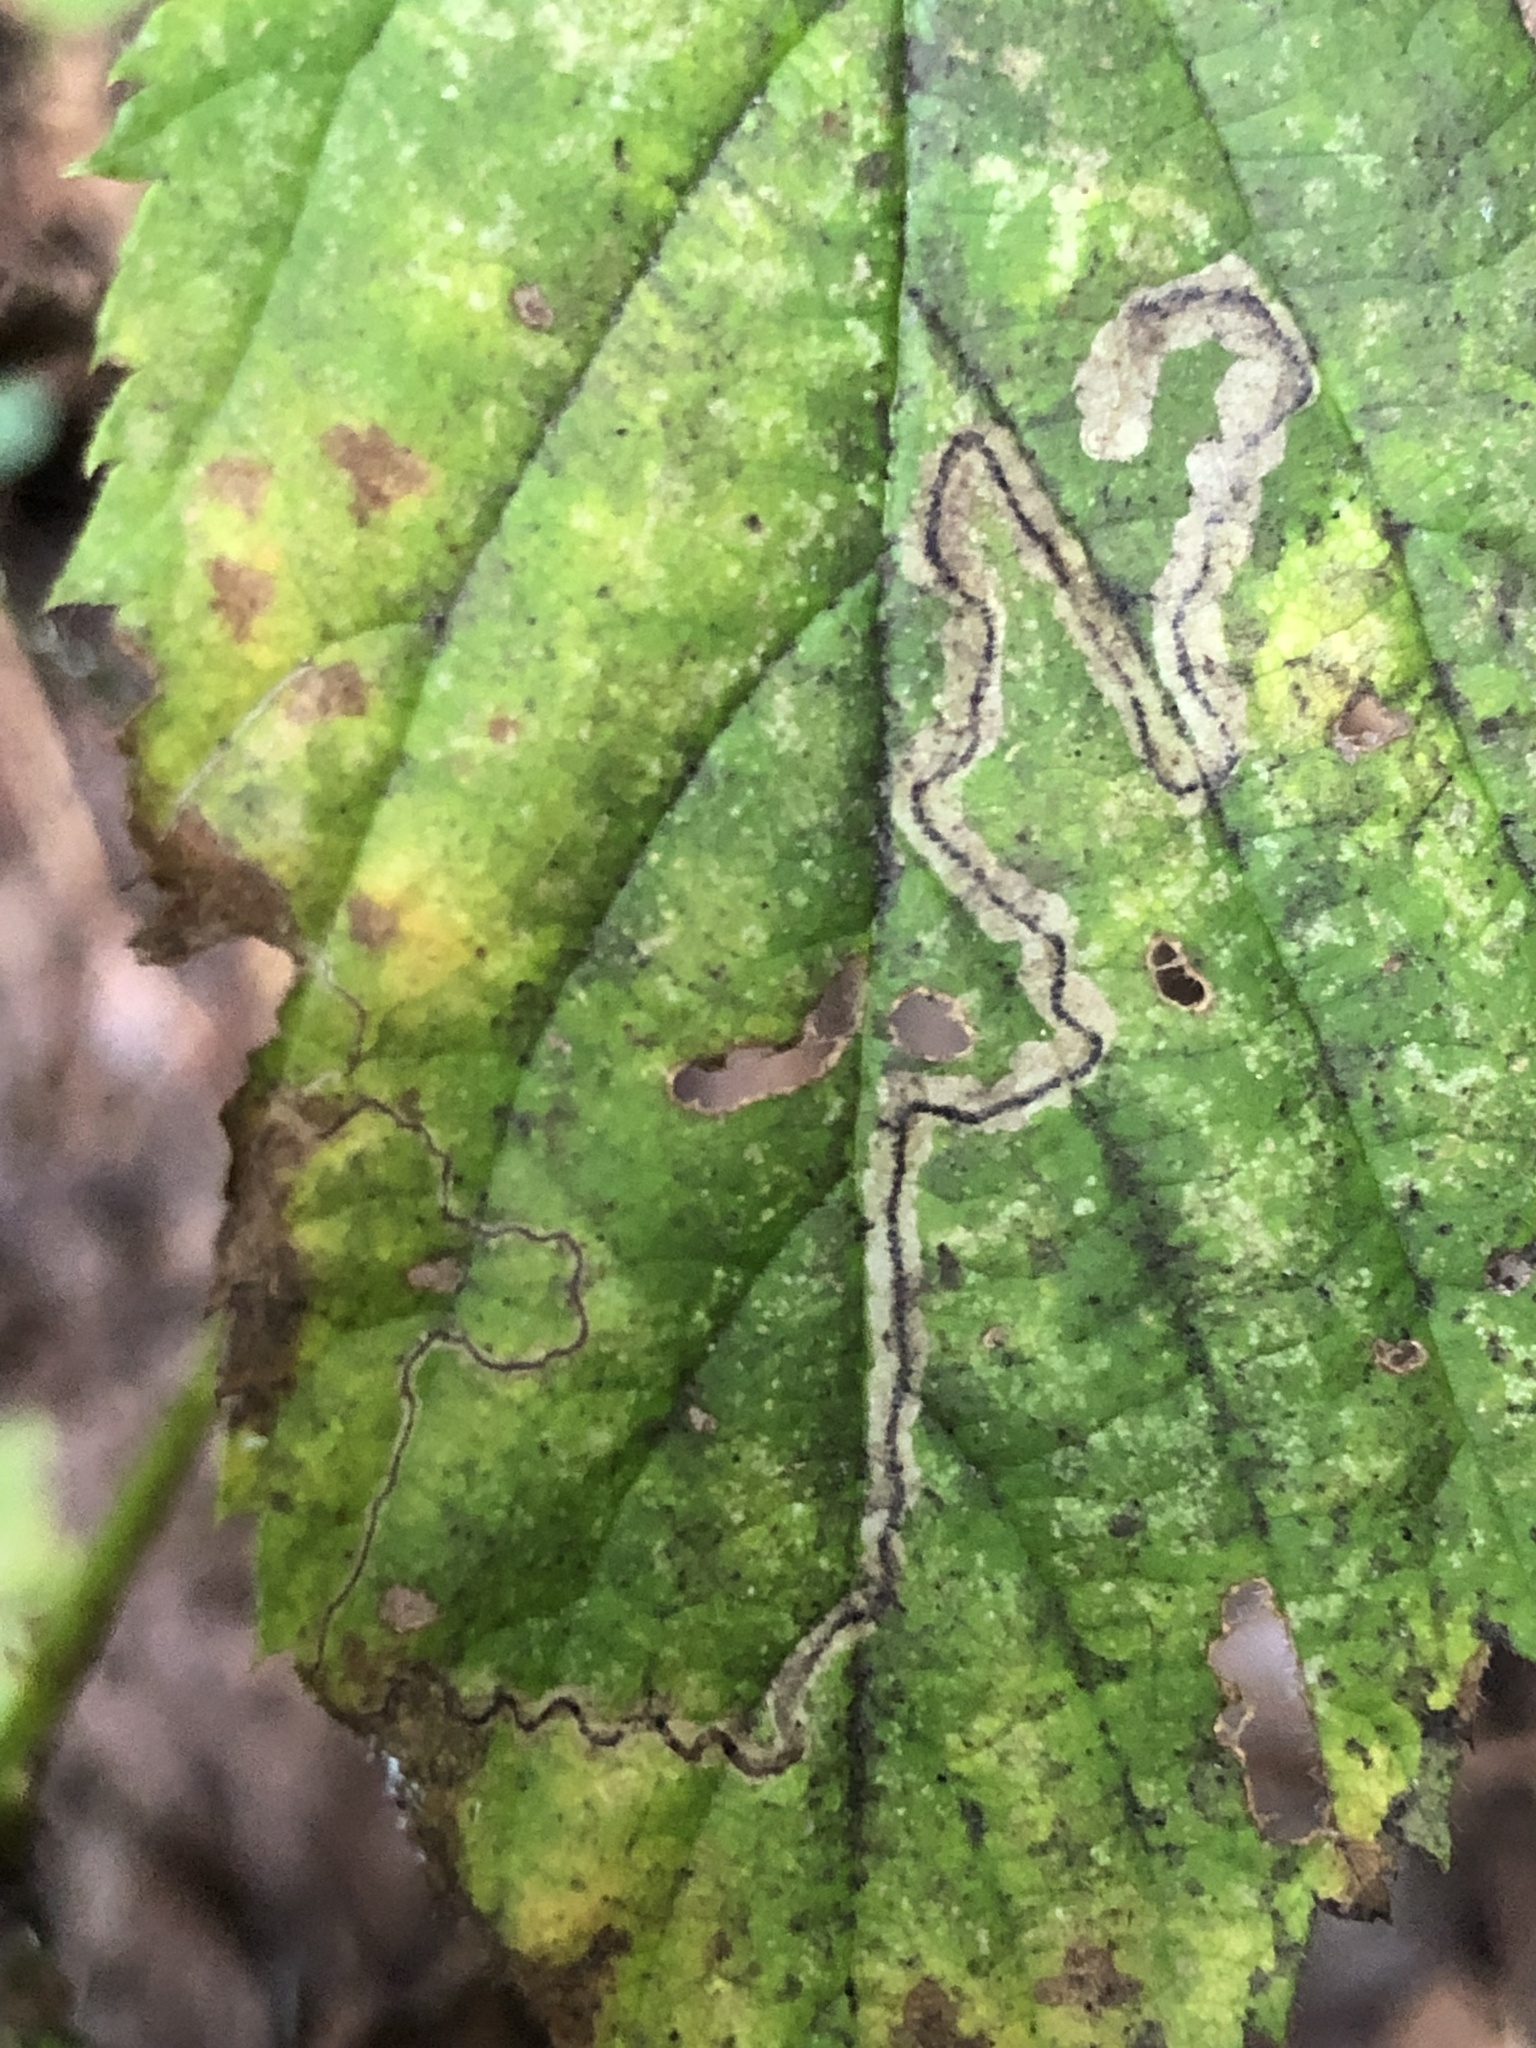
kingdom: Animalia
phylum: Arthropoda
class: Insecta
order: Lepidoptera
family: Nepticulidae
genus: Stigmella
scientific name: Stigmella villosella
